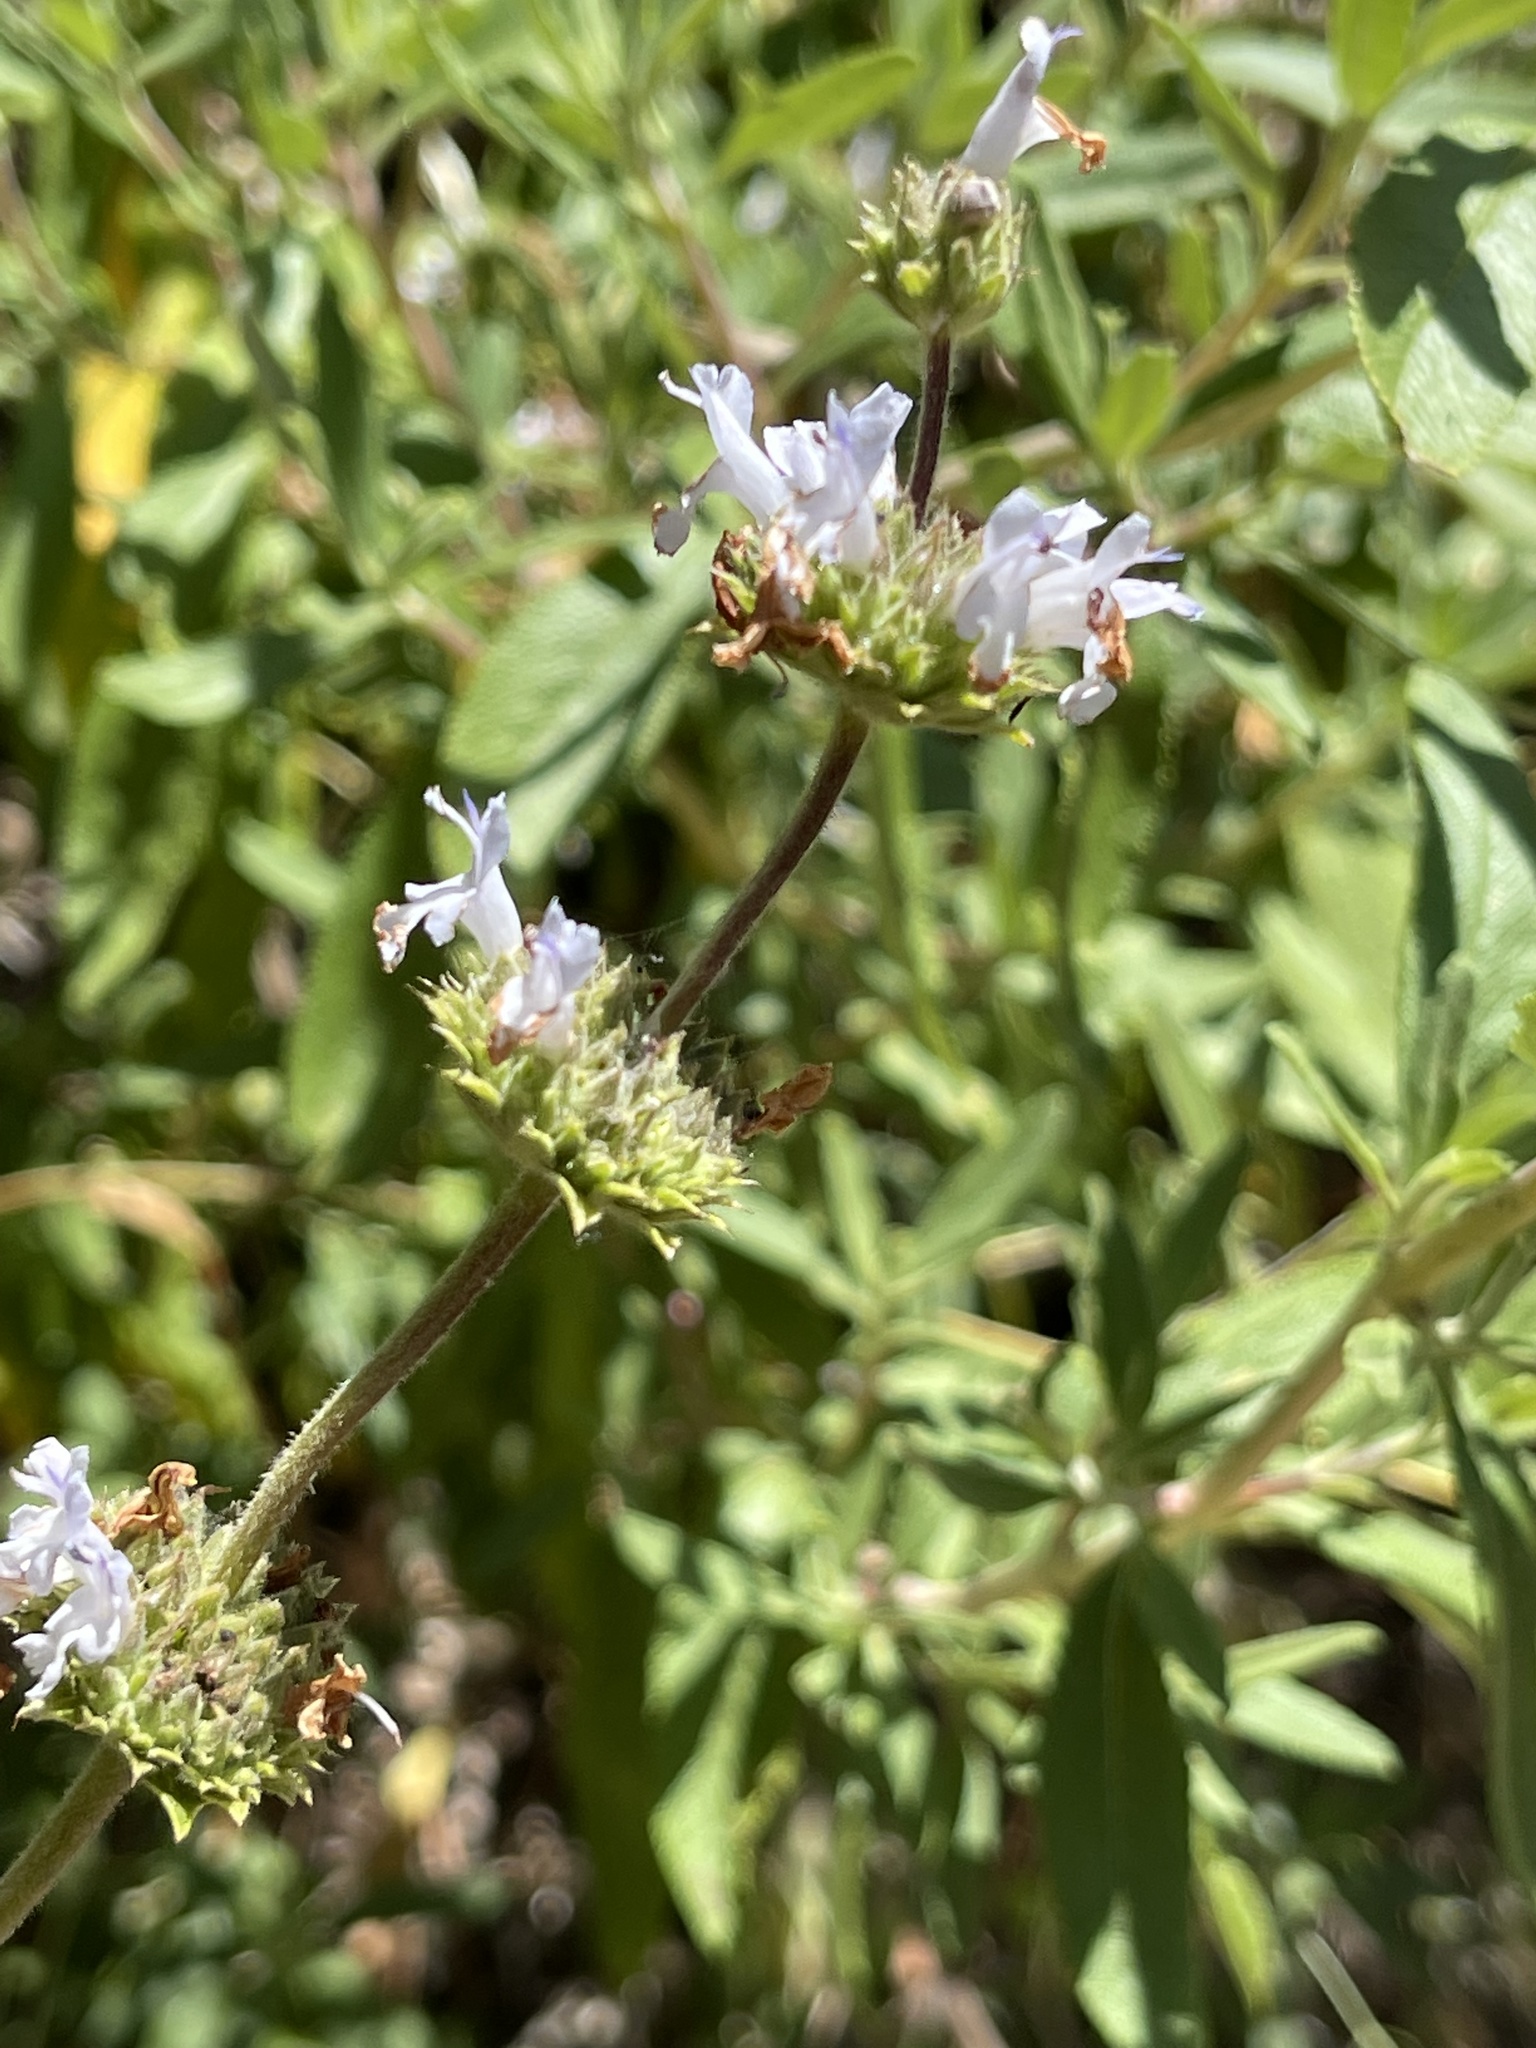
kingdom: Plantae
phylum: Tracheophyta
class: Magnoliopsida
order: Lamiales
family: Lamiaceae
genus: Salvia
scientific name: Salvia mellifera
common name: Black sage
